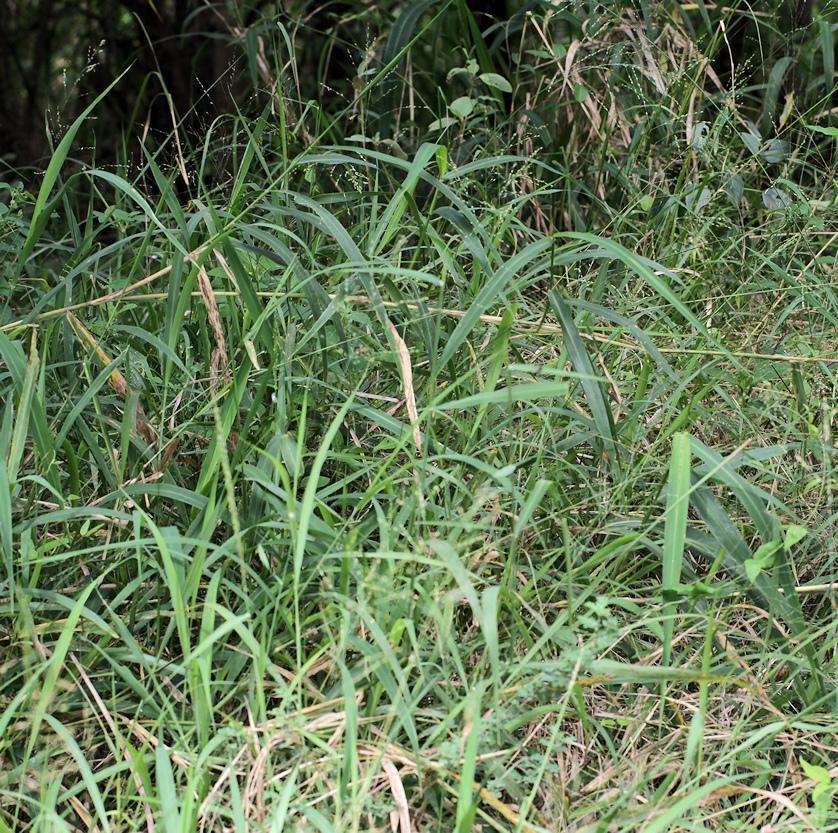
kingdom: Plantae
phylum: Tracheophyta
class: Liliopsida
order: Poales
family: Poaceae
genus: Megathyrsus
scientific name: Megathyrsus maximus
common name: Guineagrass
